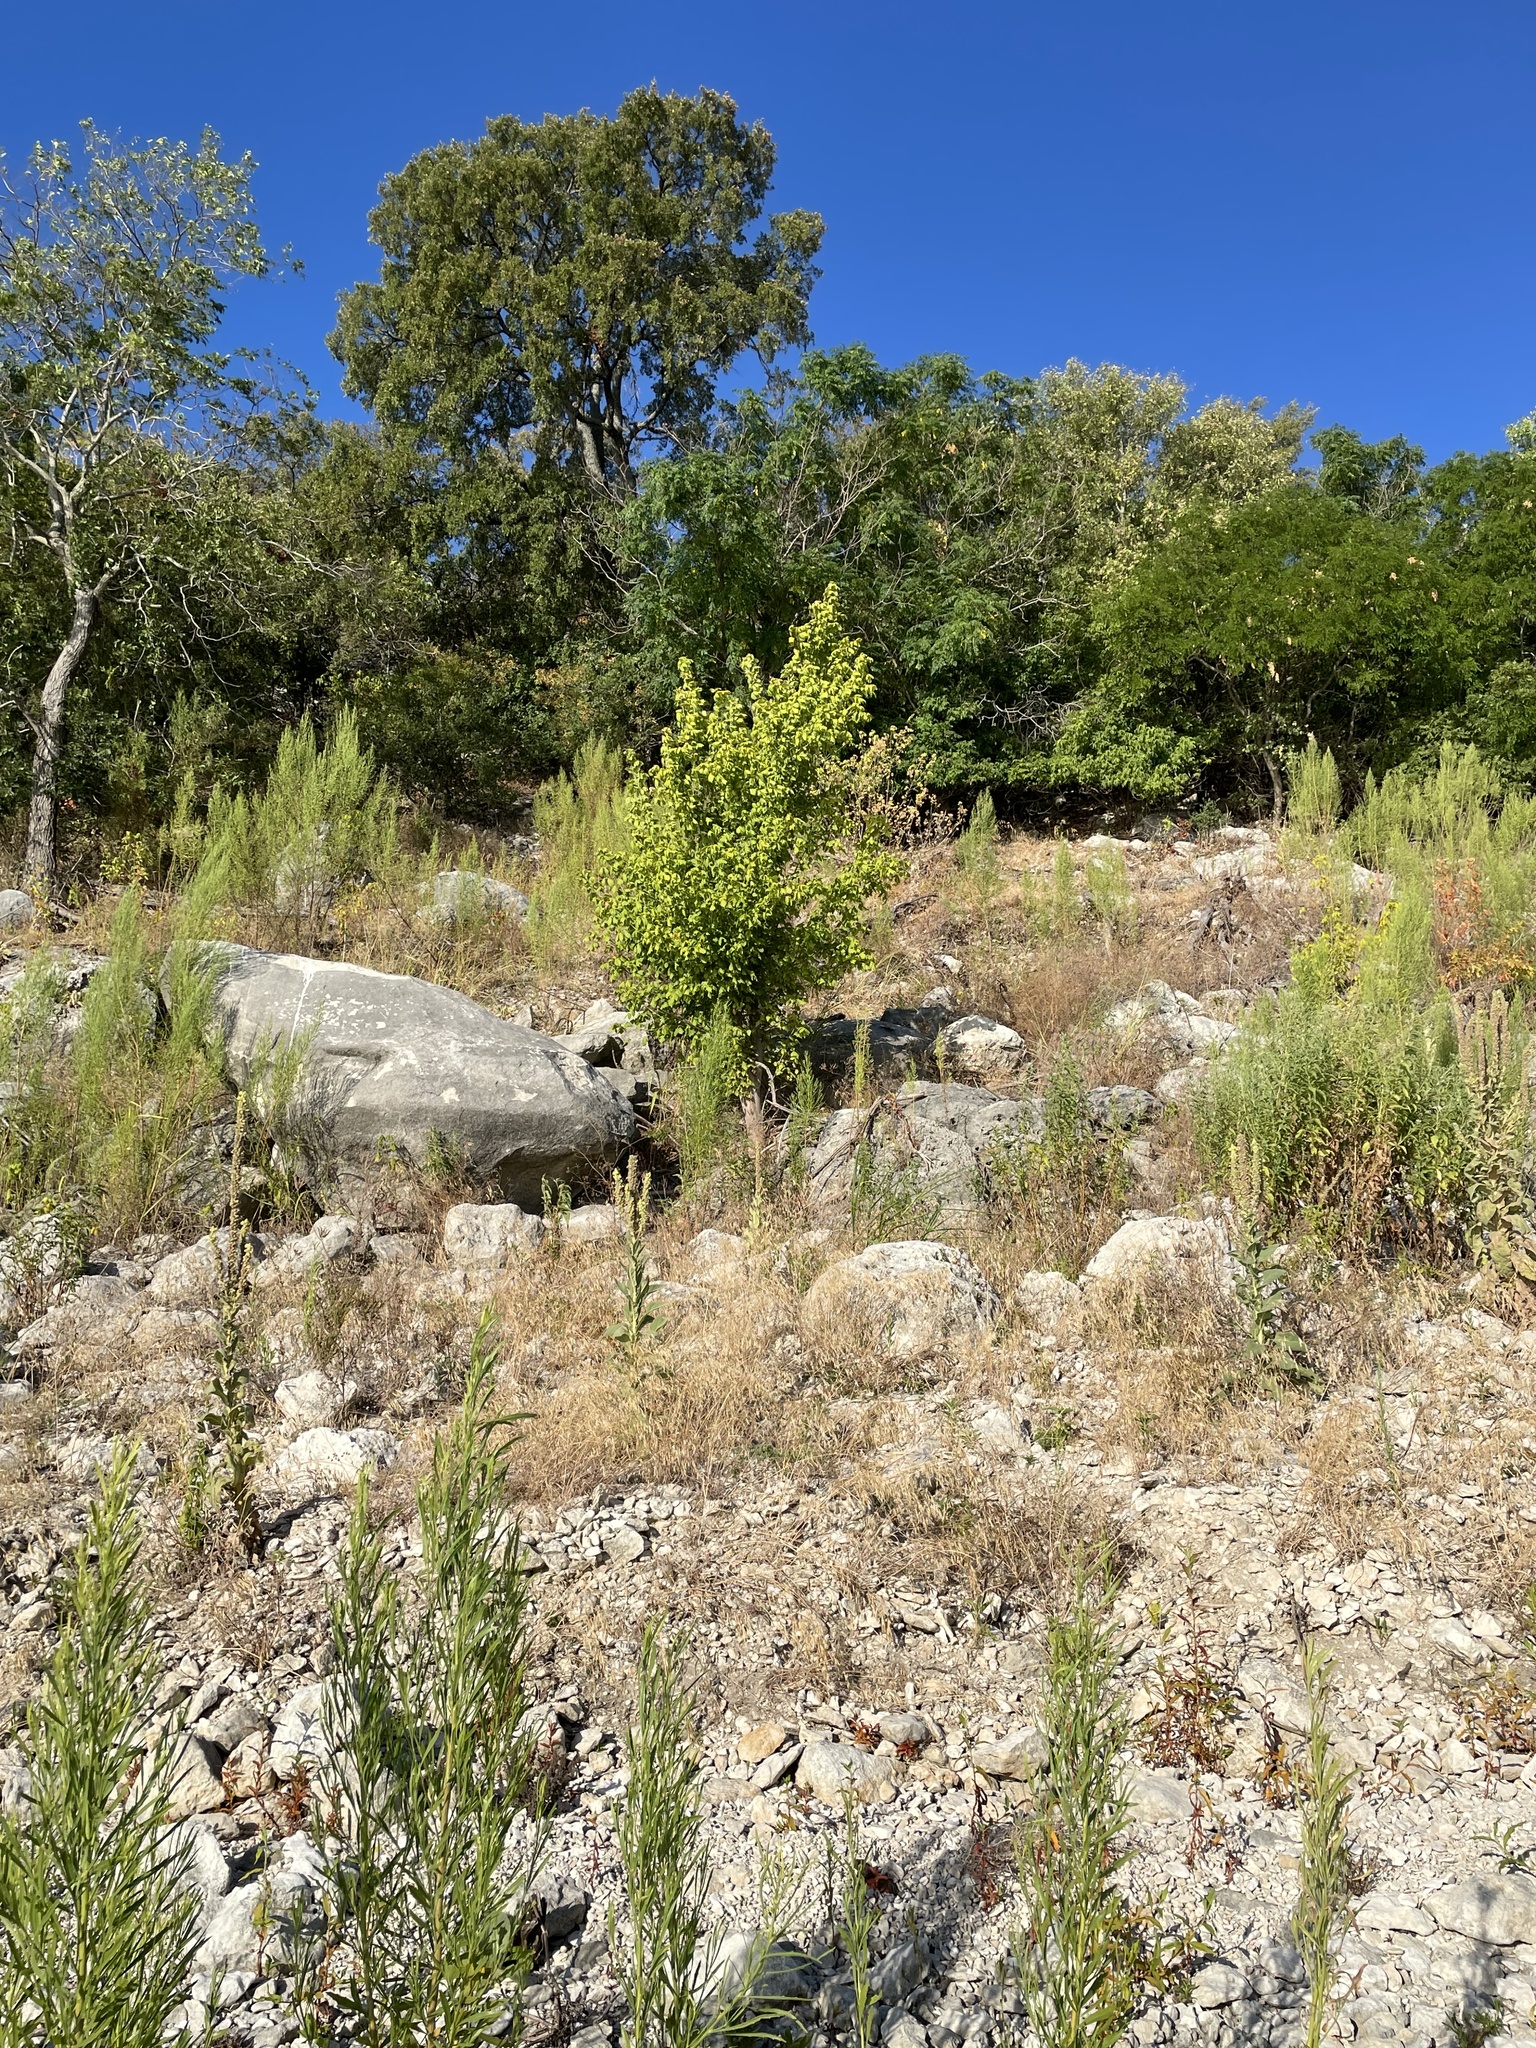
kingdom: Plantae
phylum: Tracheophyta
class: Magnoliopsida
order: Sapindales
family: Sapindaceae
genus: Acer
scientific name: Acer negundo
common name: Ashleaf maple
